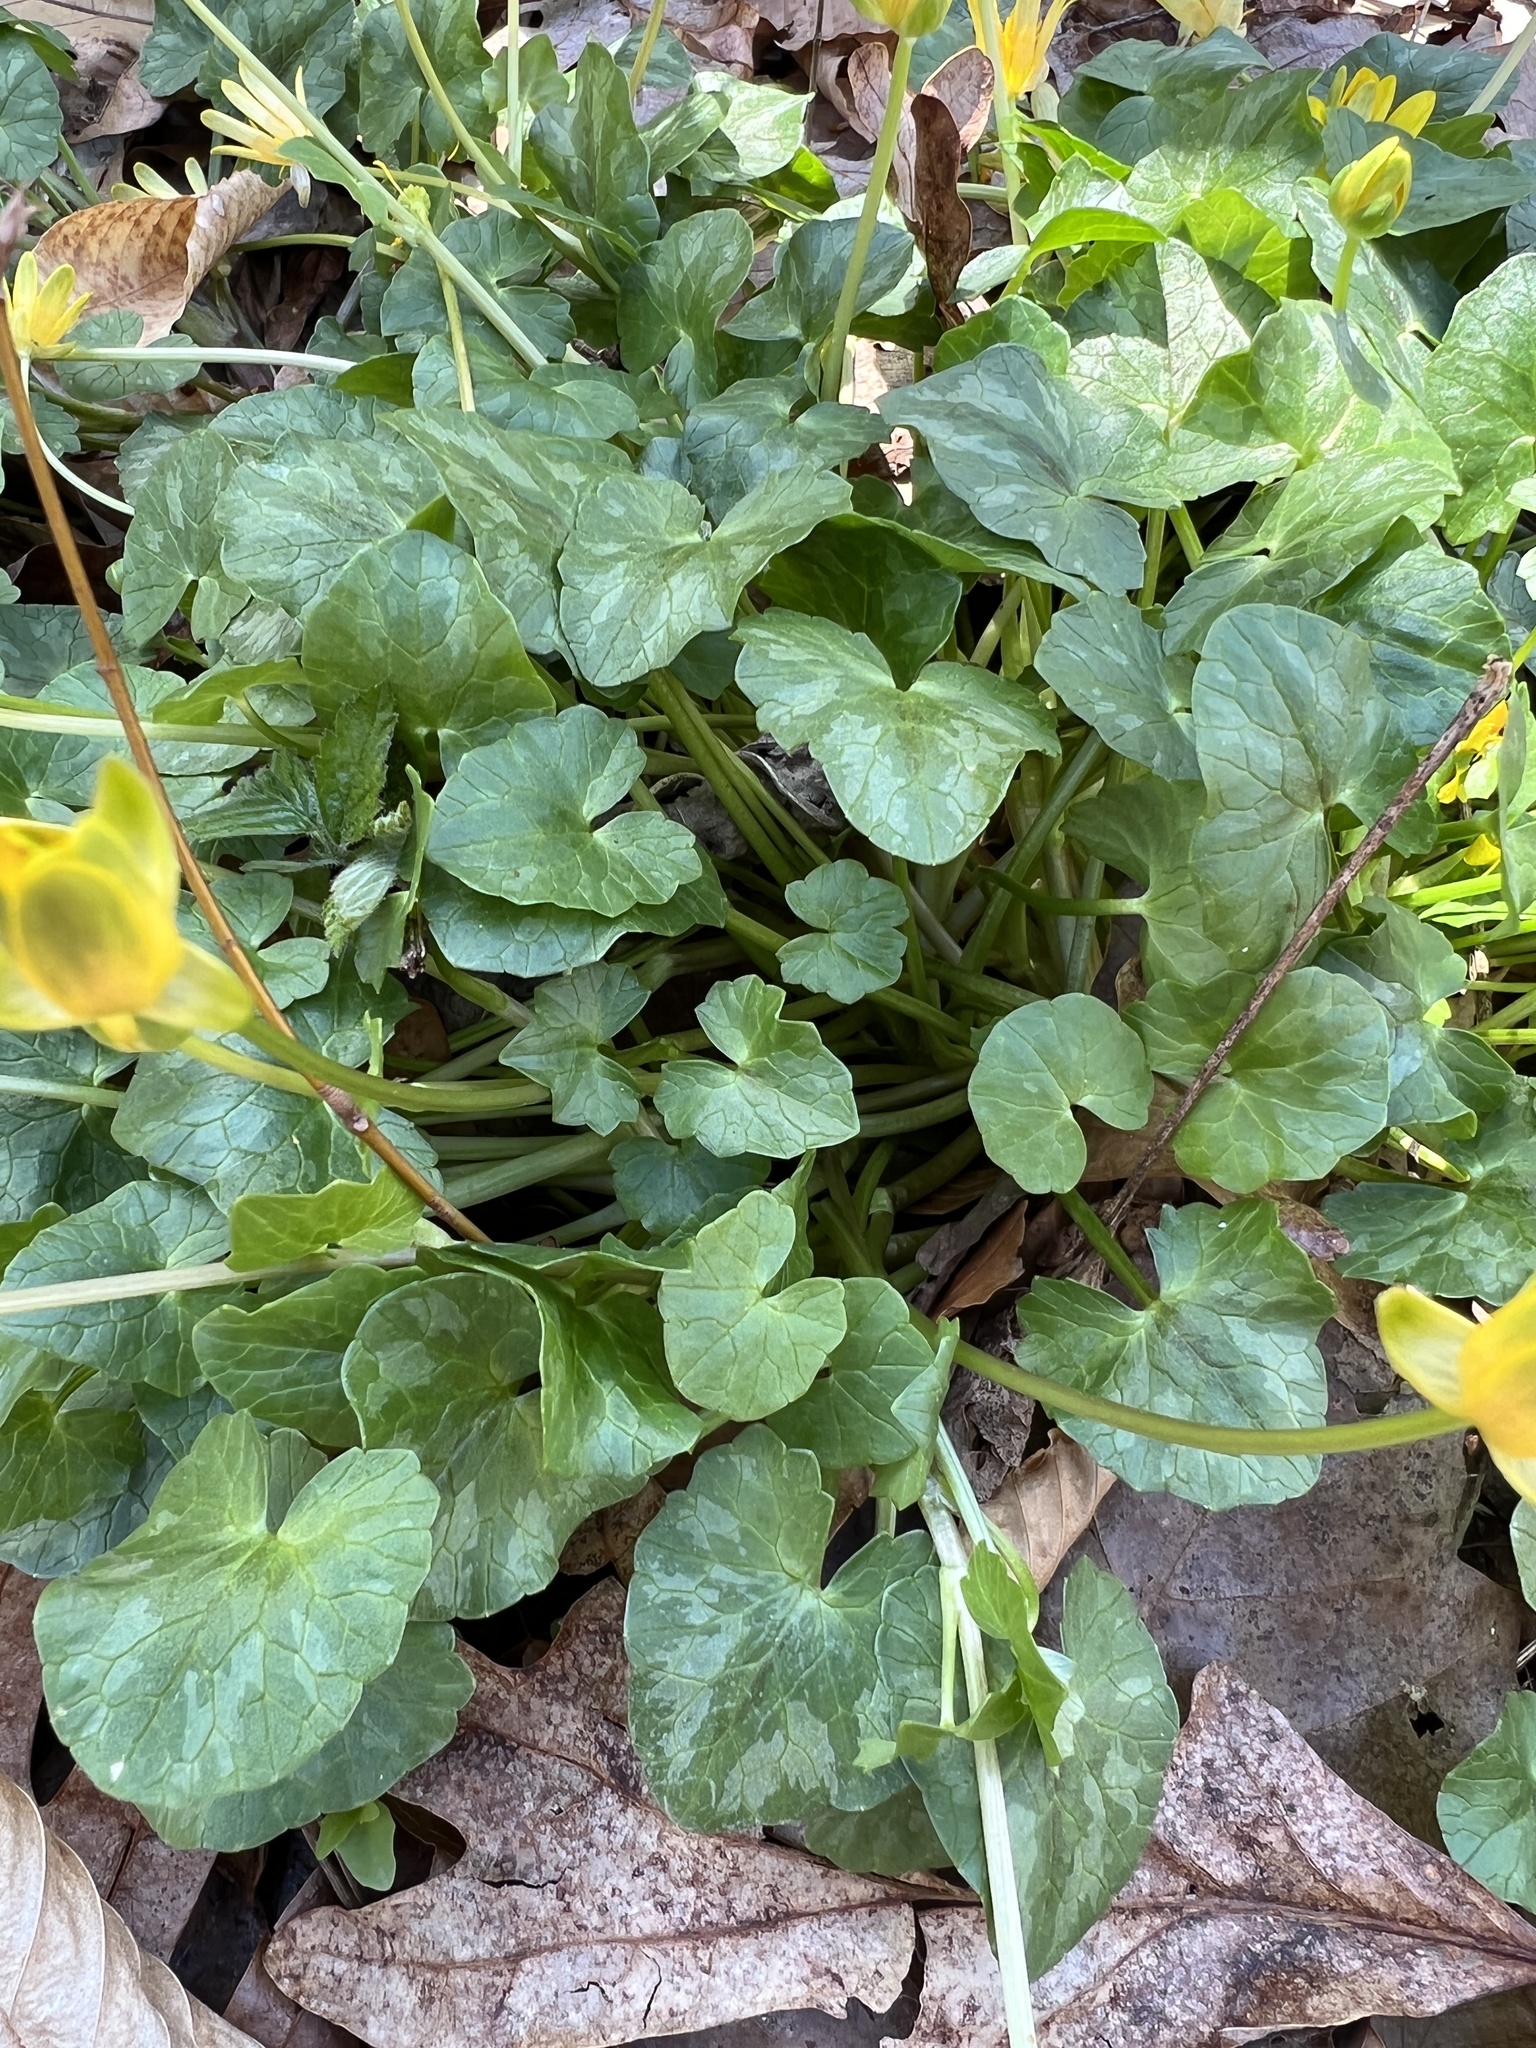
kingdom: Plantae
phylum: Tracheophyta
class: Magnoliopsida
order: Ranunculales
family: Ranunculaceae
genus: Ficaria
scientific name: Ficaria verna
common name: Lesser celandine
